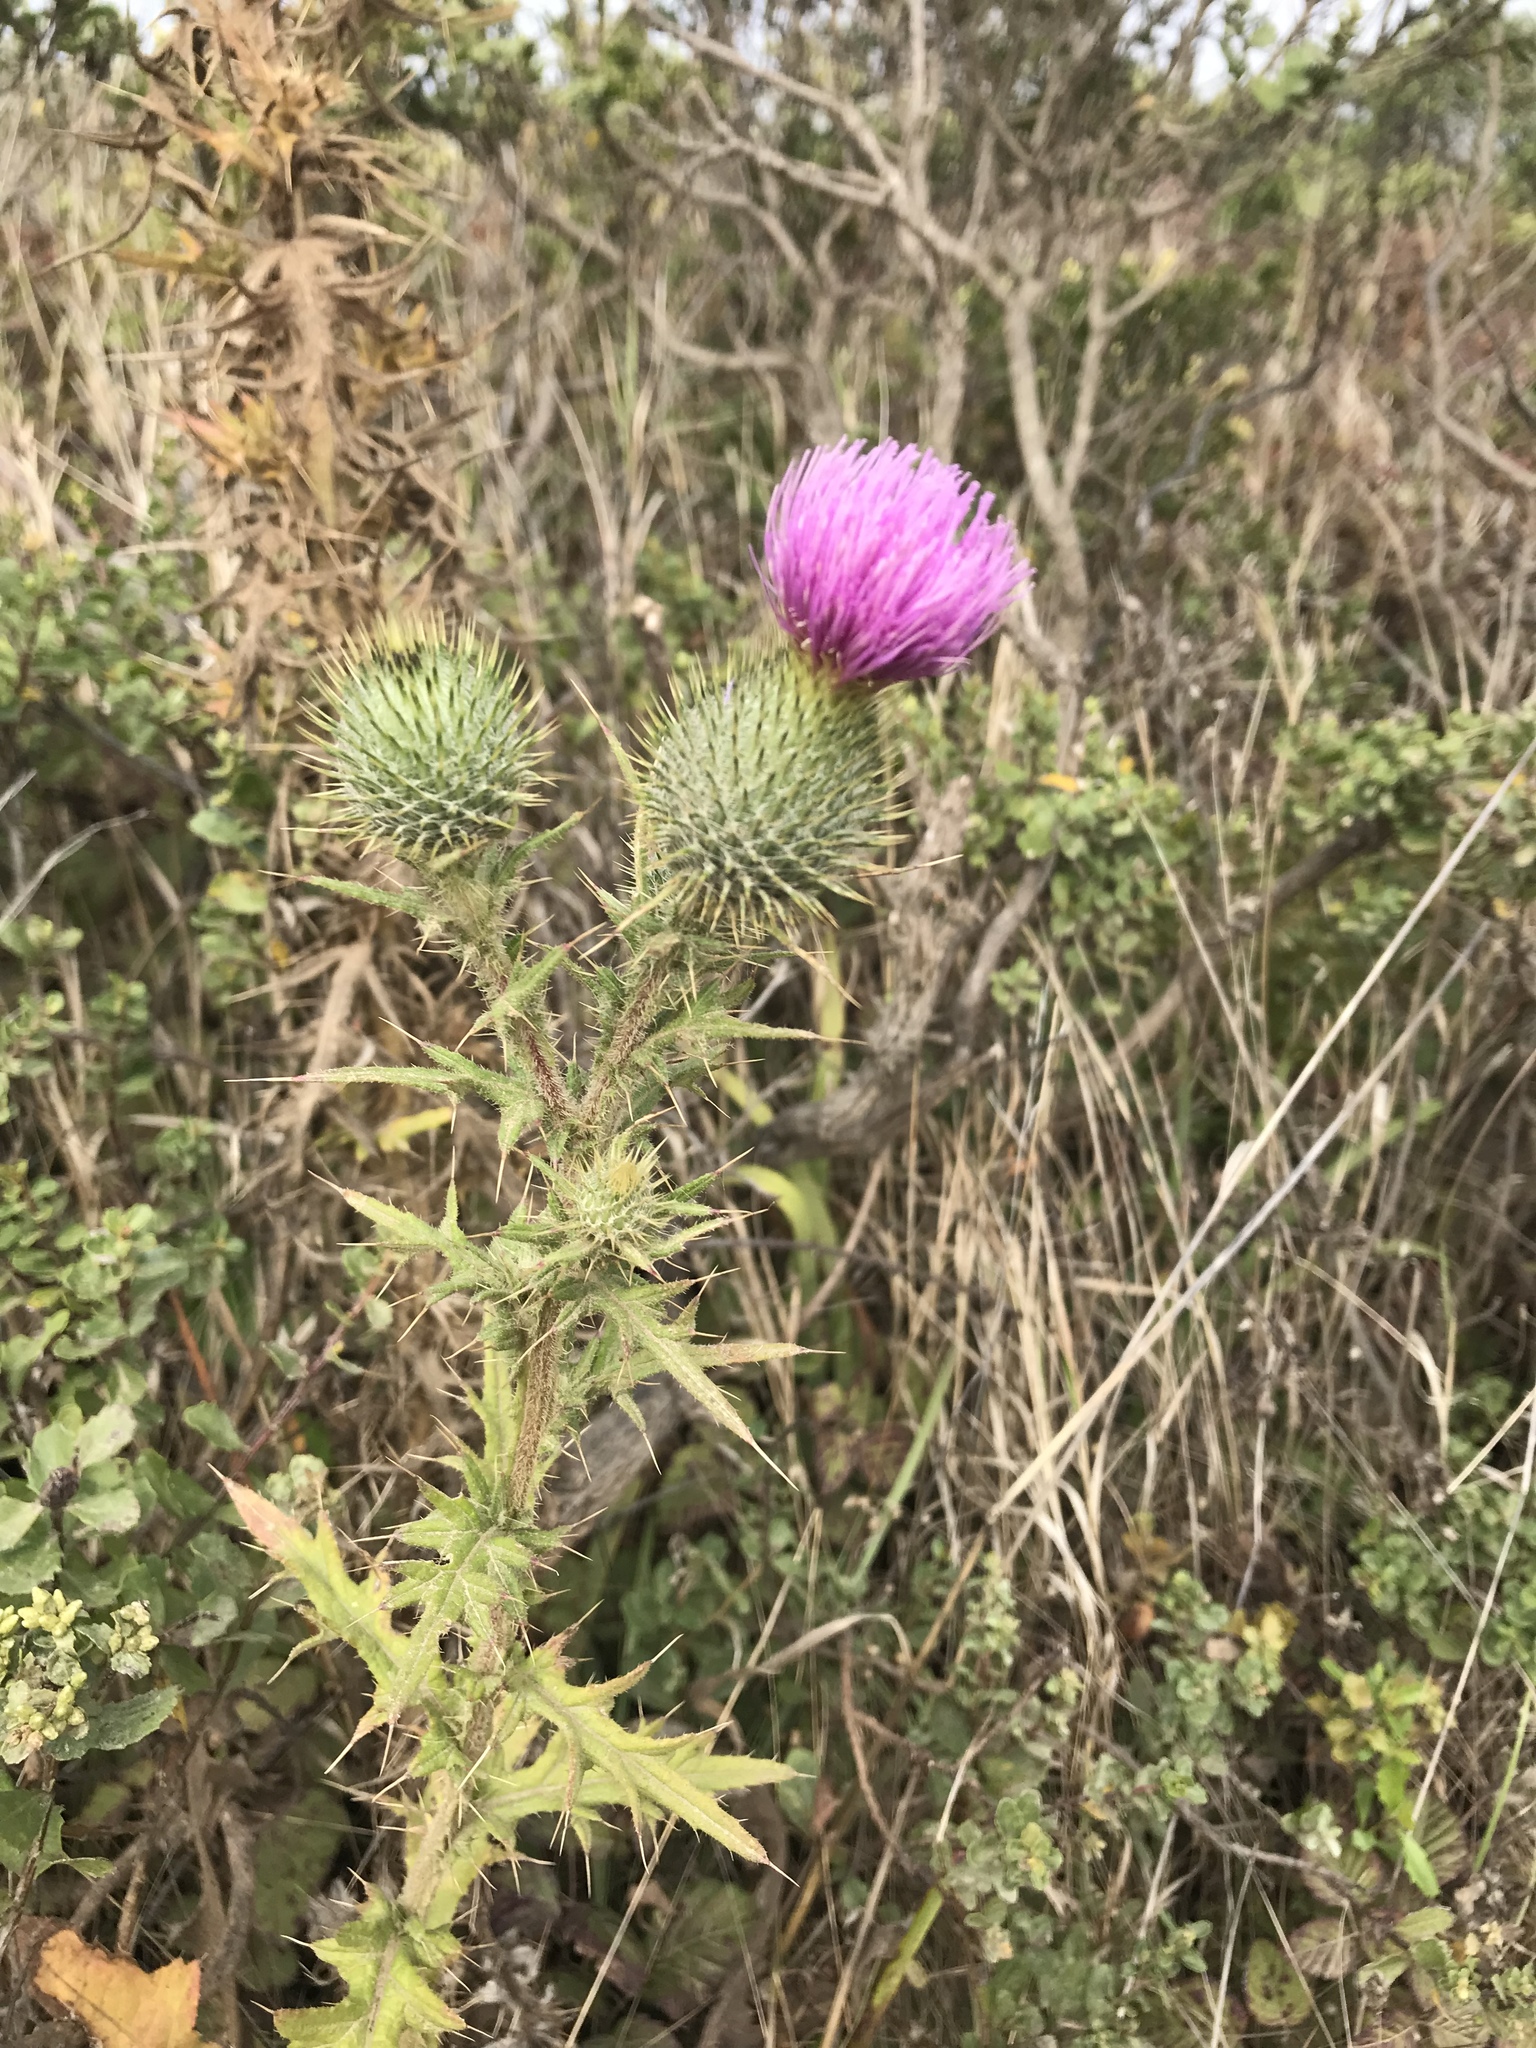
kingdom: Plantae
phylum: Tracheophyta
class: Magnoliopsida
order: Asterales
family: Asteraceae
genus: Cirsium
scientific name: Cirsium vulgare
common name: Bull thistle
